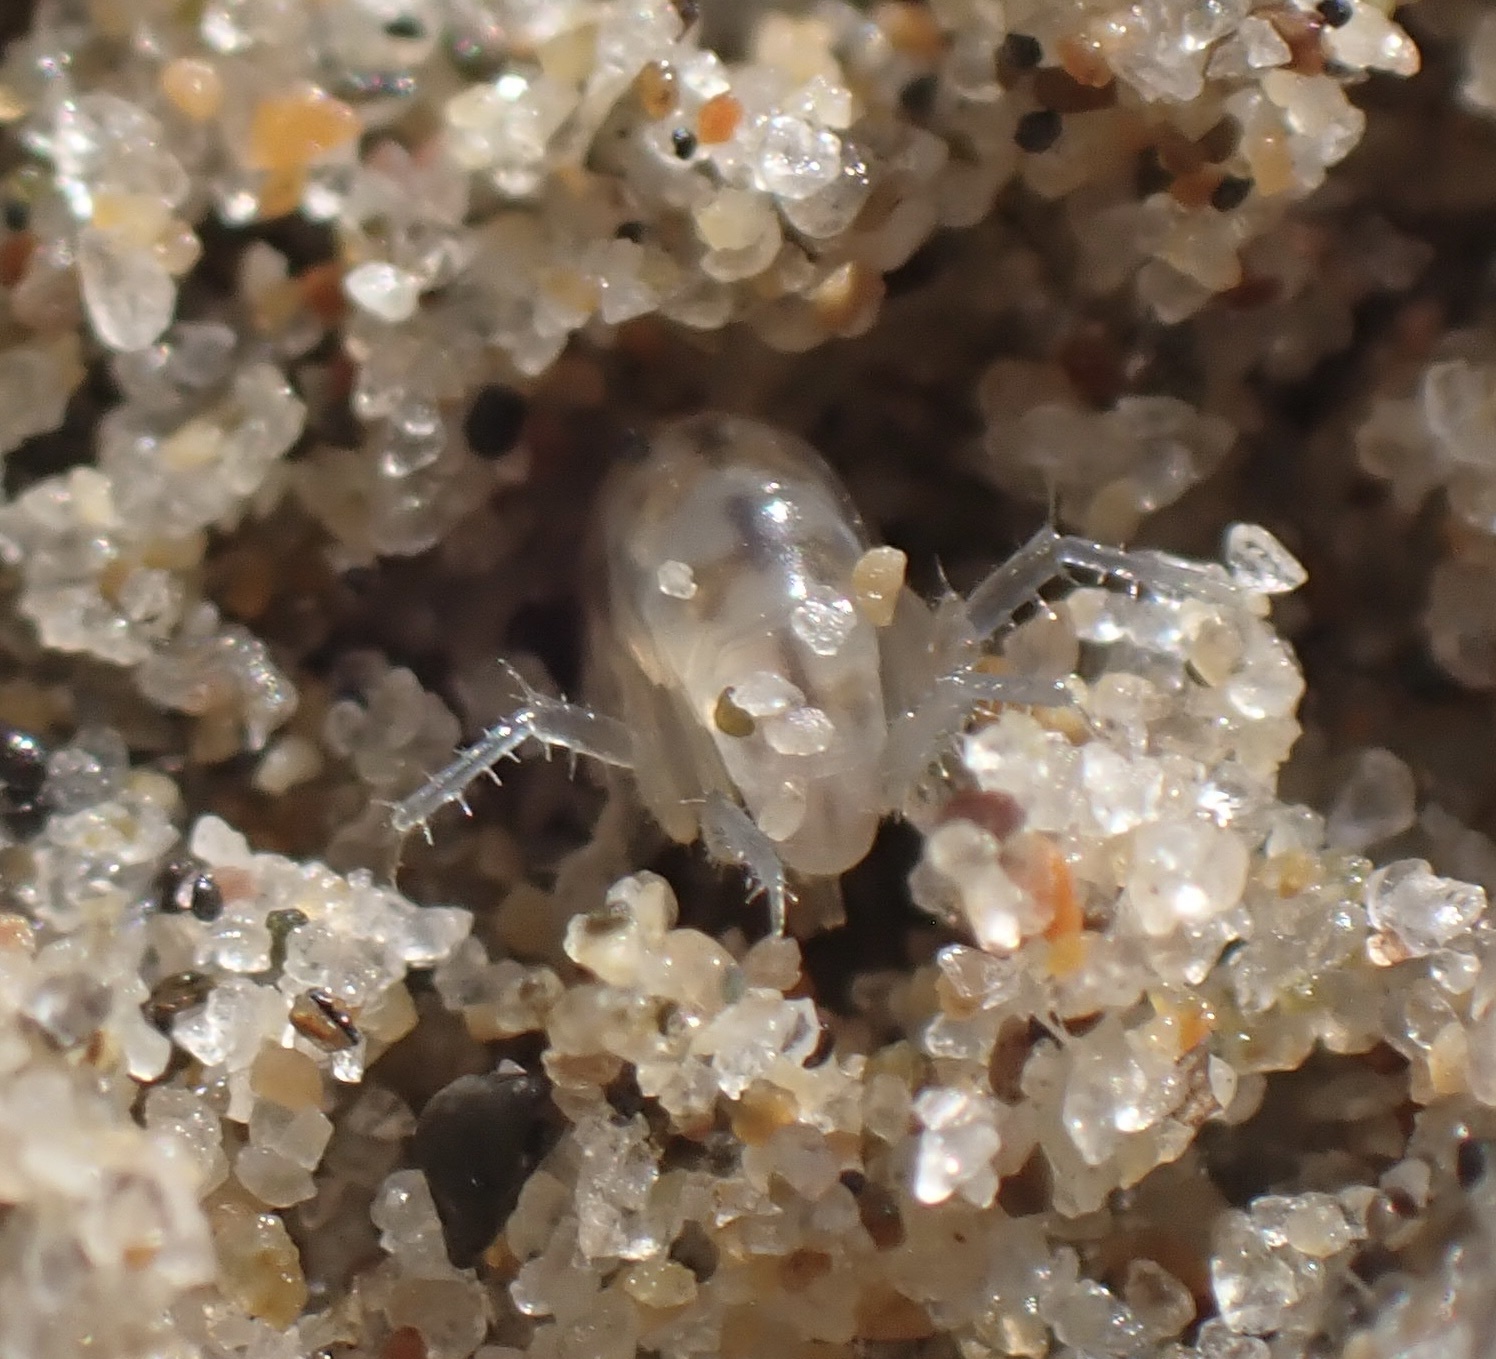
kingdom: Animalia
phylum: Arthropoda
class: Malacostraca
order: Amphipoda
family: Talitridae
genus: Megalorchestia
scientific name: Megalorchestia californiana
